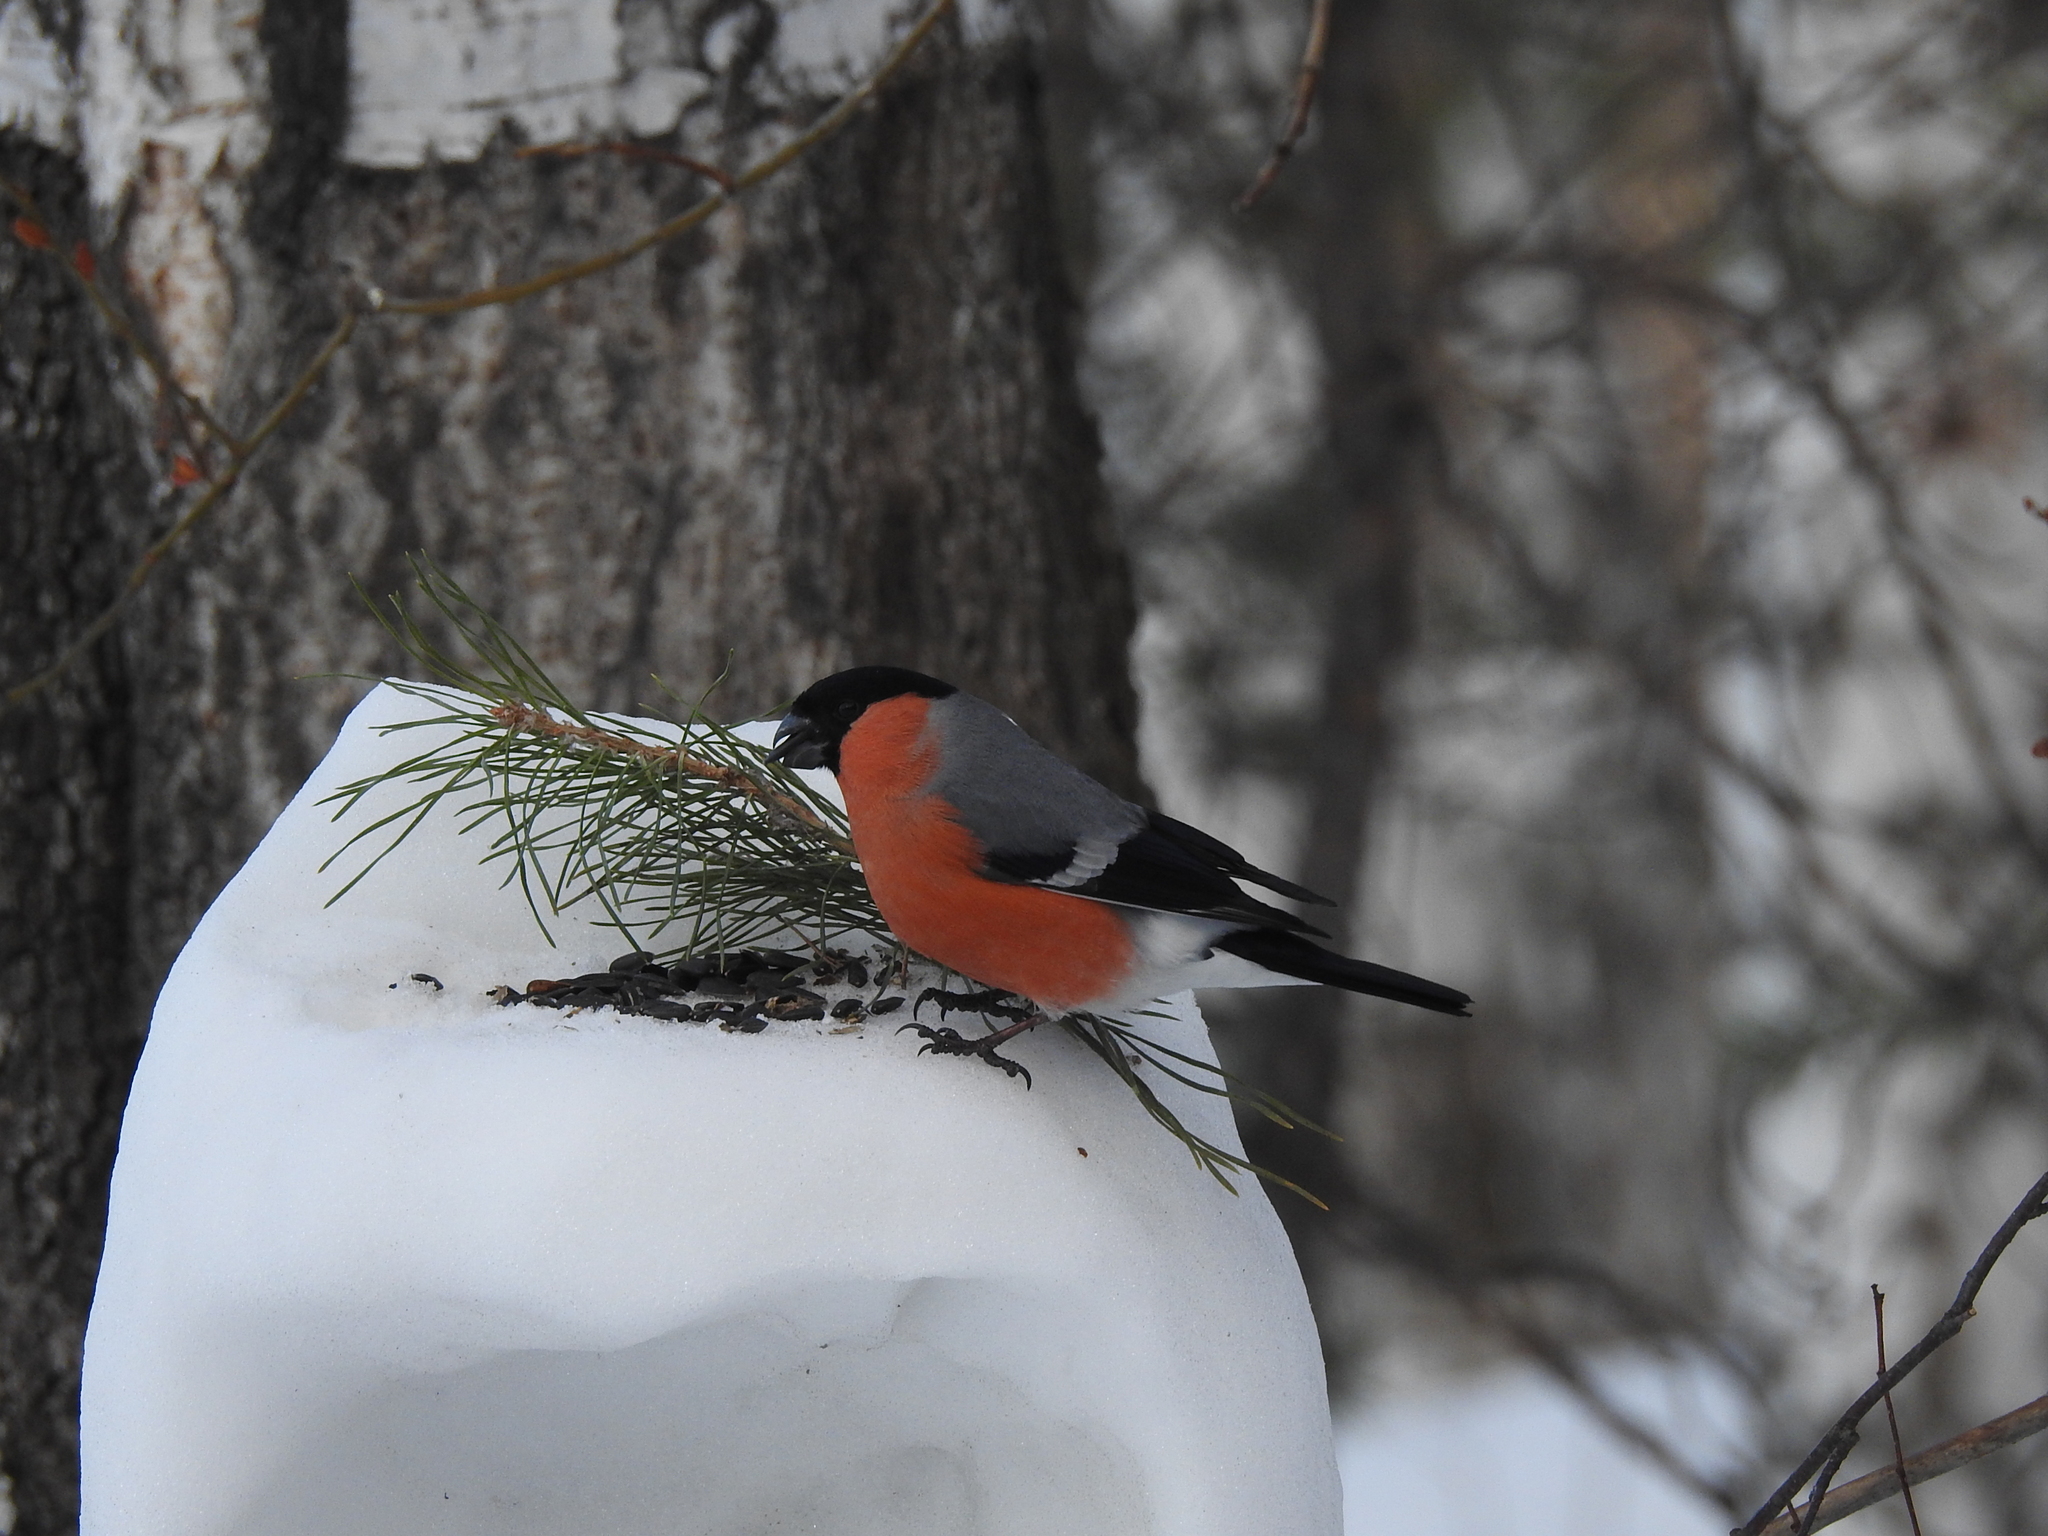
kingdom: Animalia
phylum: Chordata
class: Aves
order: Passeriformes
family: Fringillidae
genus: Pyrrhula
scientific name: Pyrrhula pyrrhula
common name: Eurasian bullfinch
